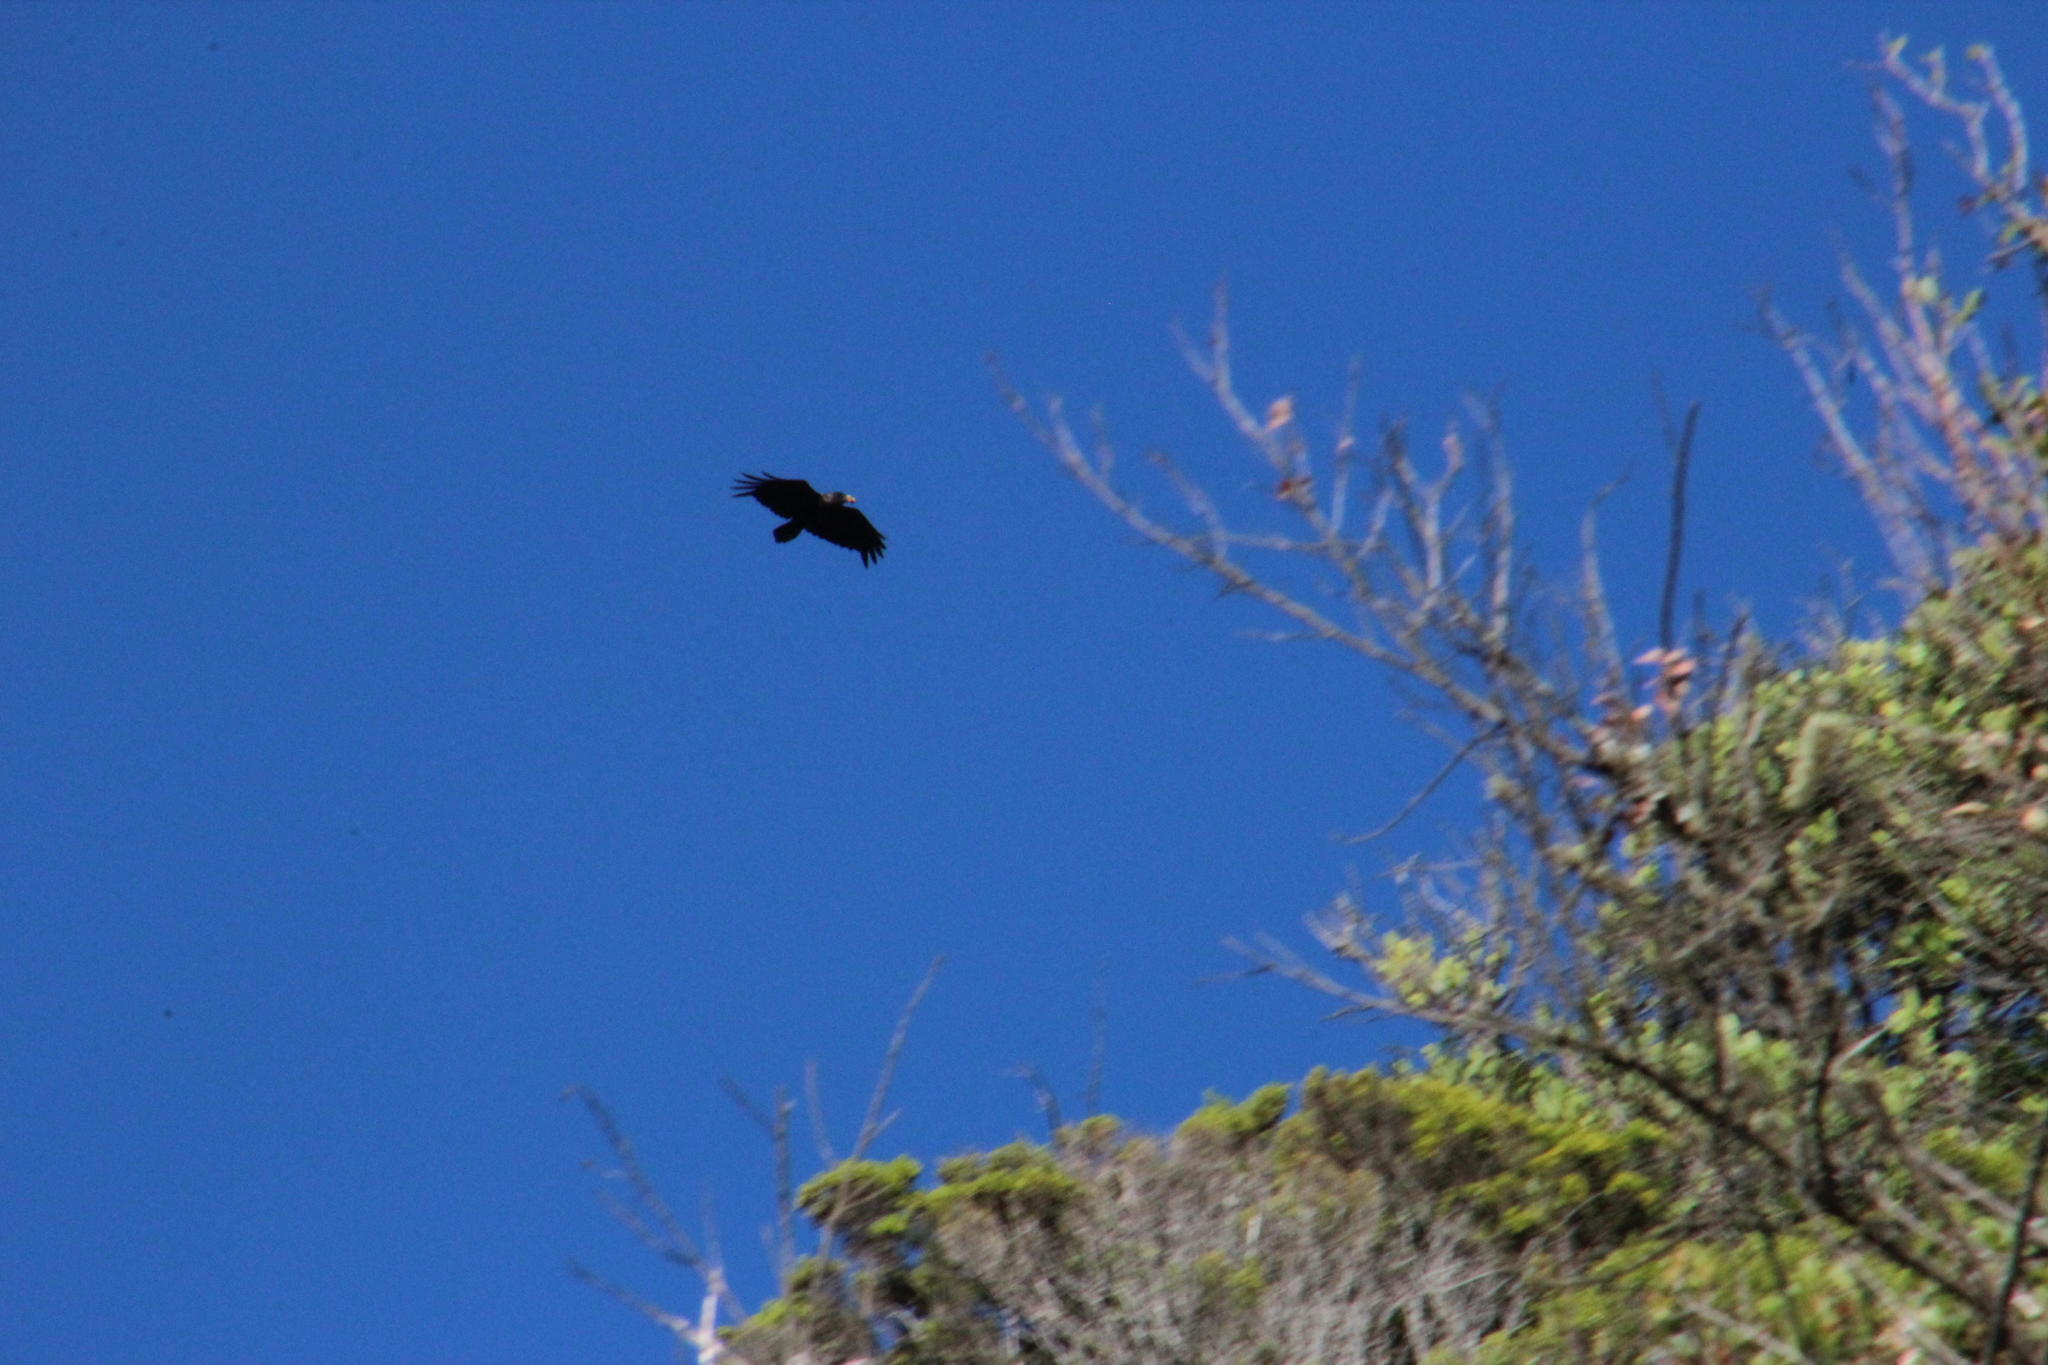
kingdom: Animalia
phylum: Chordata
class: Aves
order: Passeriformes
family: Corvidae
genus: Corvus
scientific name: Corvus albicollis
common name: White-necked raven
